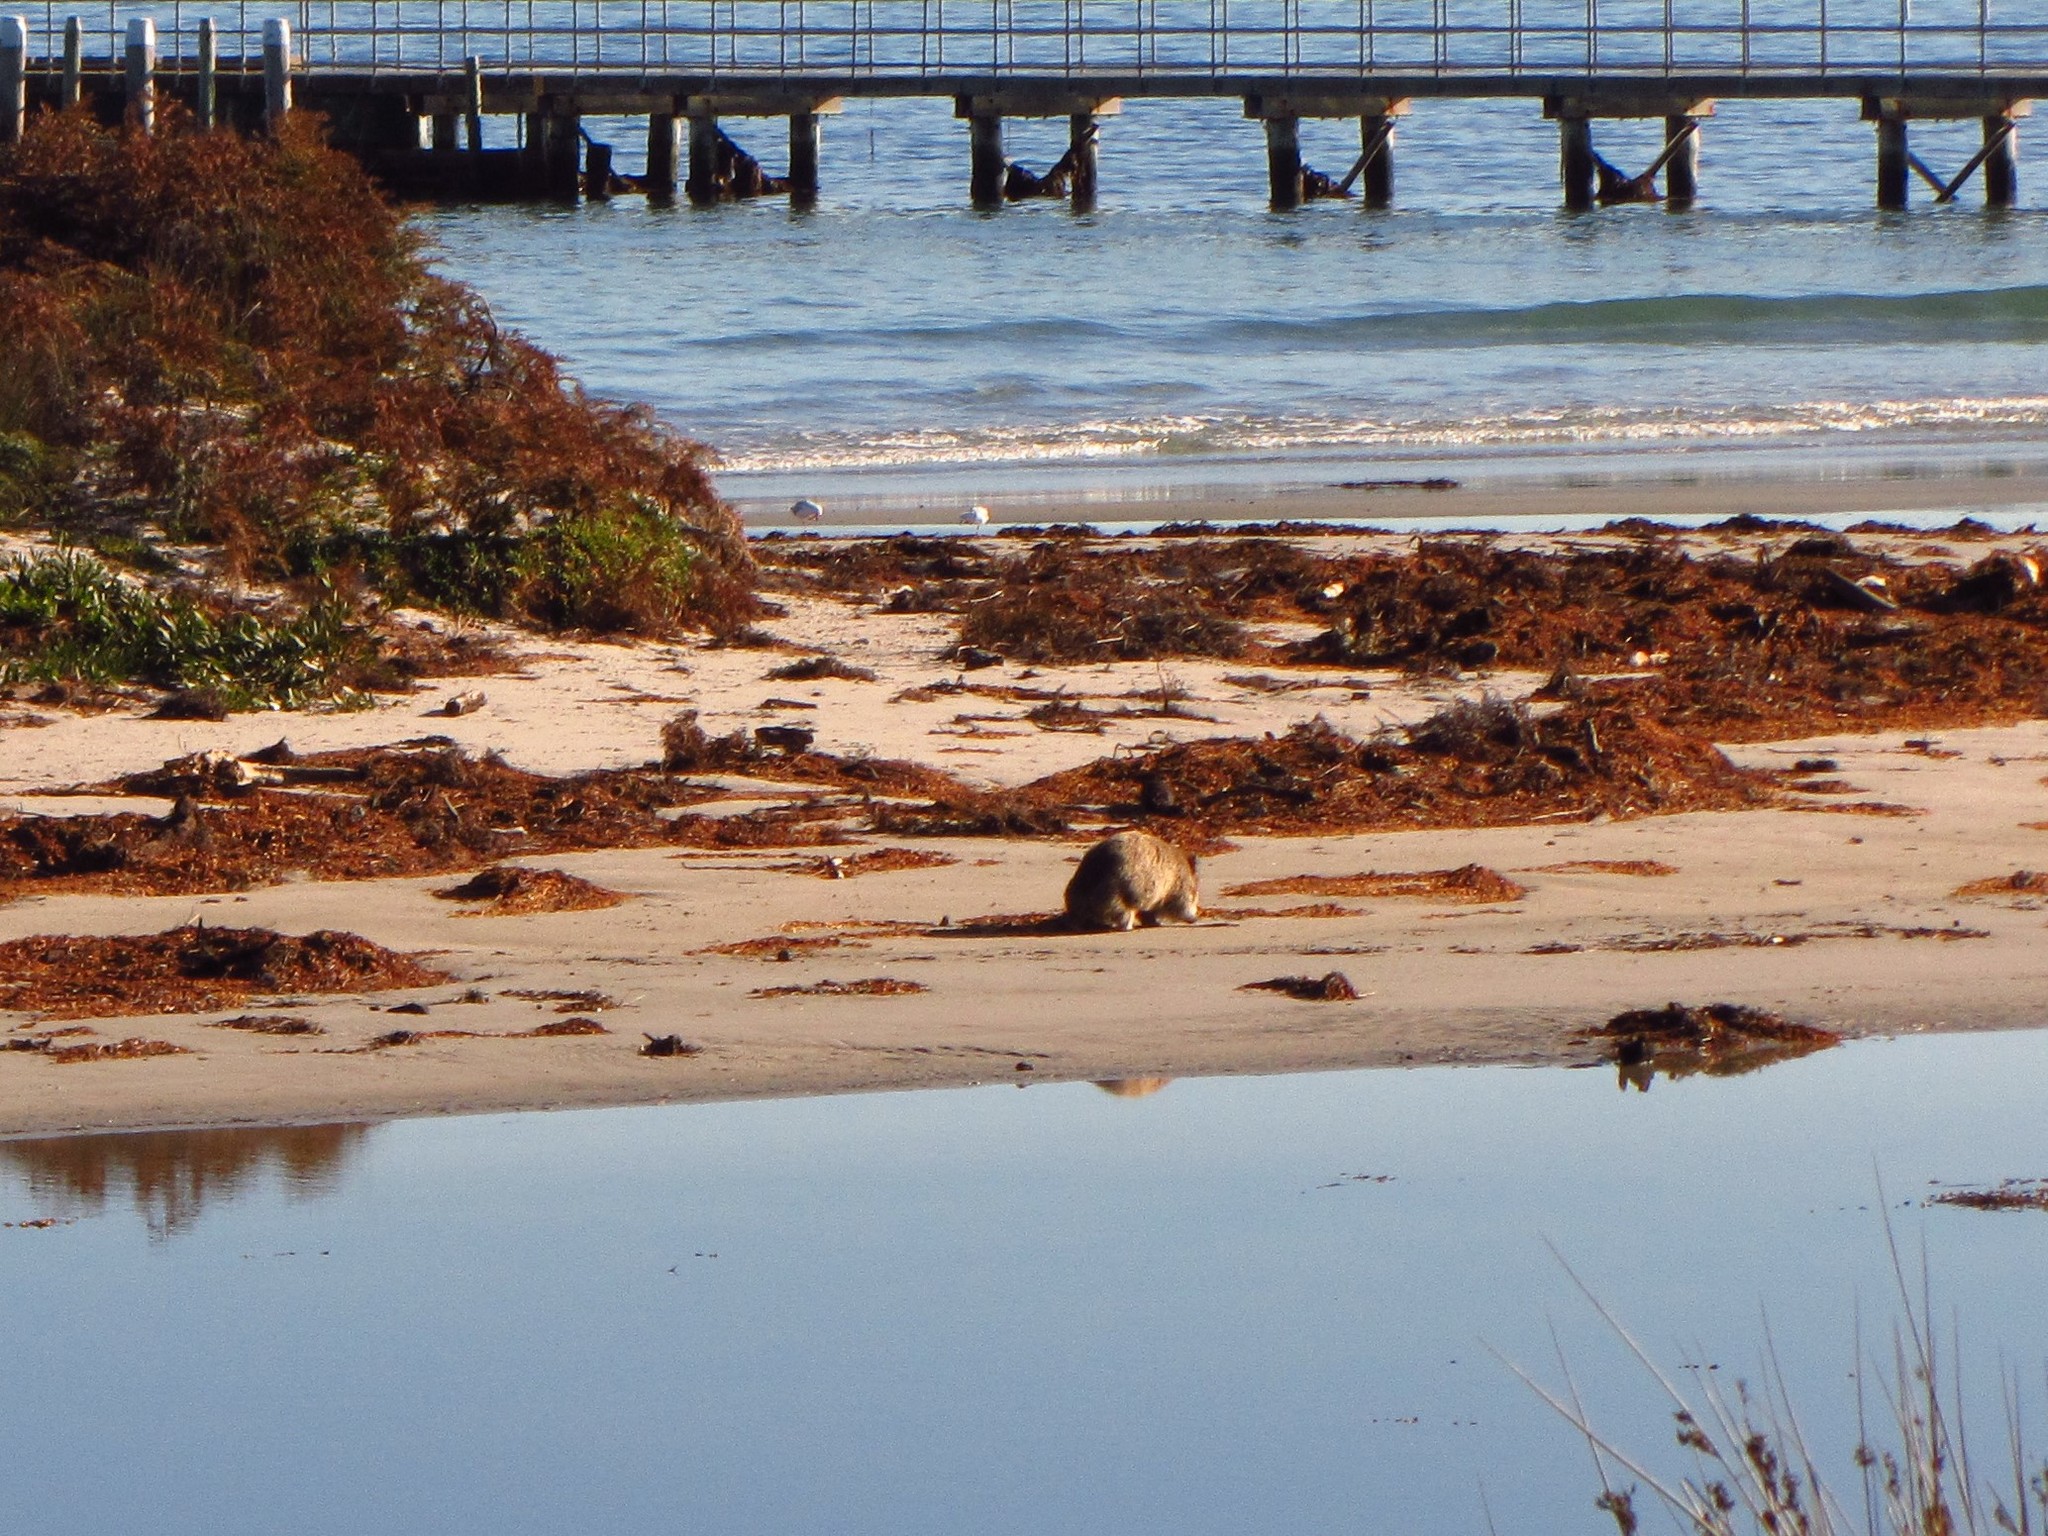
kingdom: Animalia
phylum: Chordata
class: Mammalia
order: Diprotodontia
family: Vombatidae
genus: Vombatus
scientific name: Vombatus ursinus
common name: Common wombat
